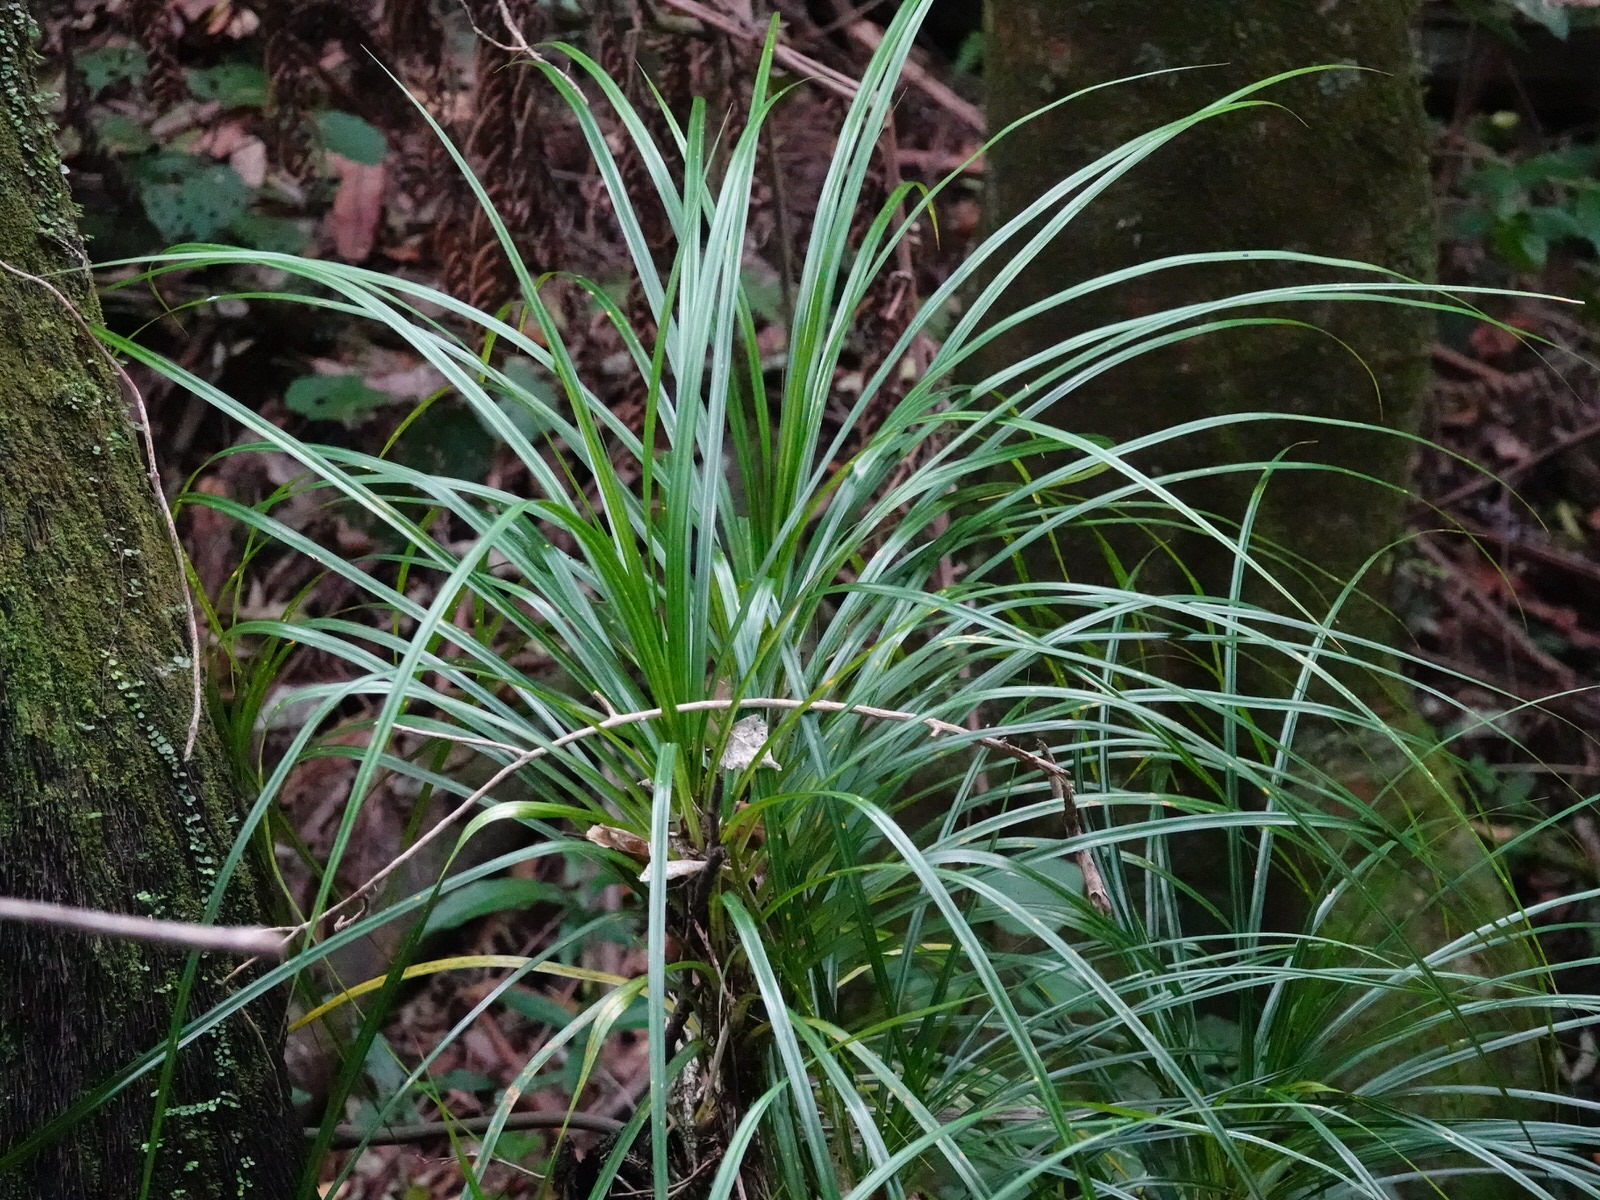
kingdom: Plantae
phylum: Tracheophyta
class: Liliopsida
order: Pandanales
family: Pandanaceae
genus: Freycinetia
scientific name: Freycinetia banksii
